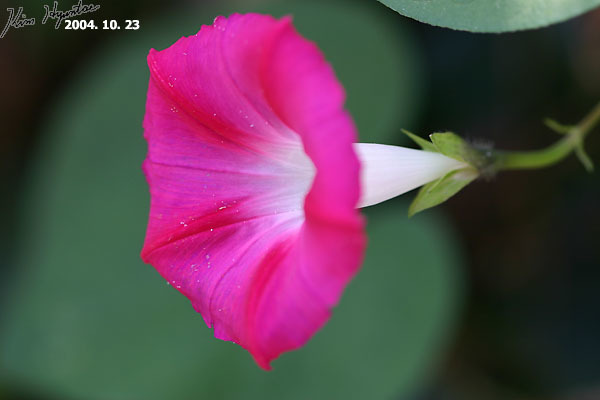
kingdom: Plantae
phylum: Tracheophyta
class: Magnoliopsida
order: Solanales
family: Convolvulaceae
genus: Ipomoea
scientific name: Ipomoea purpurea
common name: Common morning-glory
